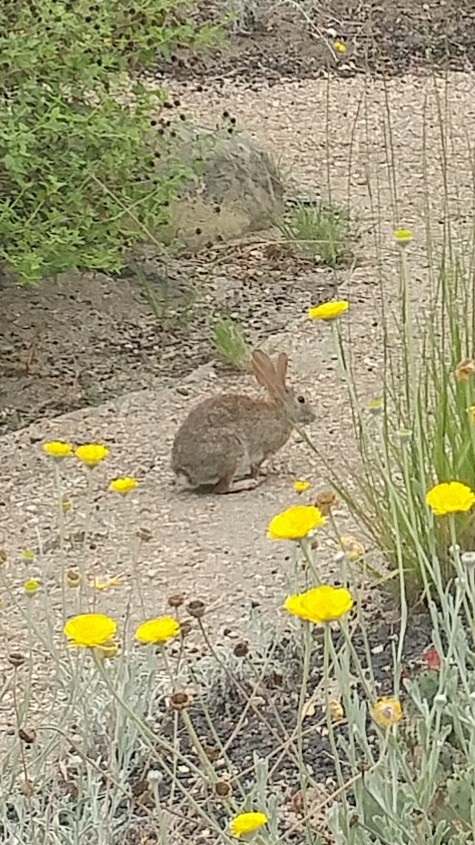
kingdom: Animalia
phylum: Chordata
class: Mammalia
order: Lagomorpha
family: Leporidae
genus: Sylvilagus
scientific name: Sylvilagus bachmani
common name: Brush rabbit
